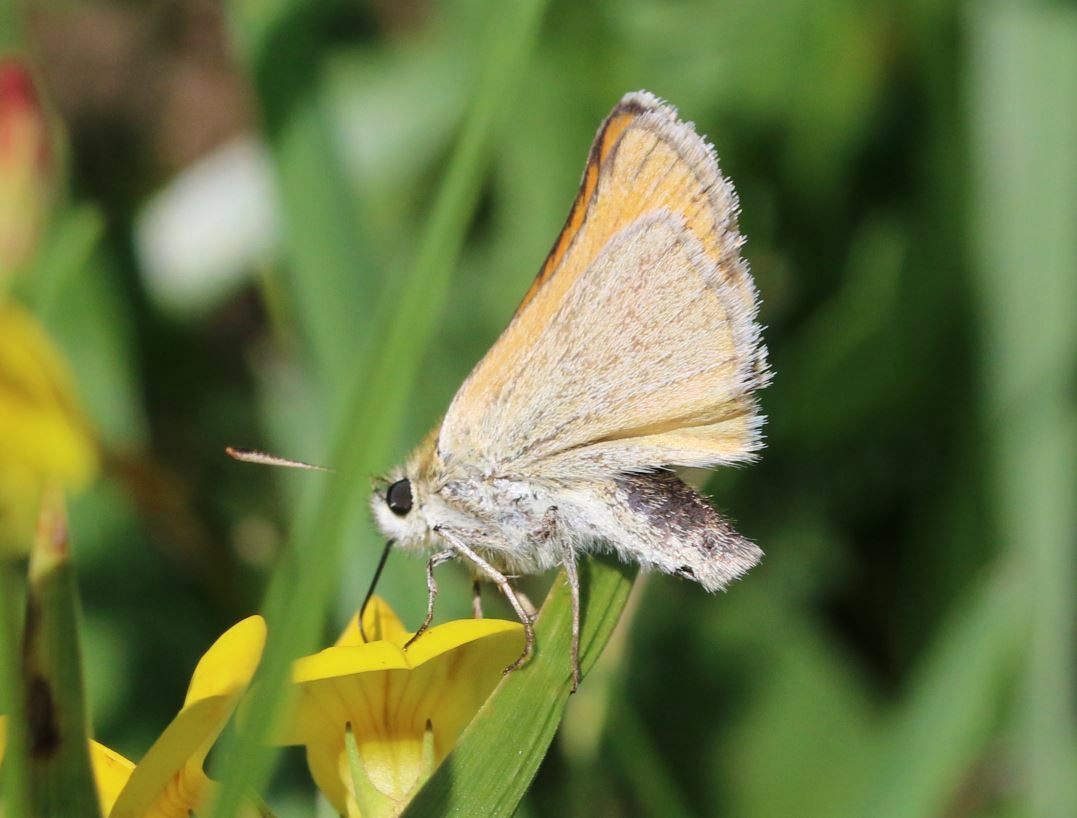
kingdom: Animalia
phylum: Arthropoda
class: Insecta
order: Lepidoptera
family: Hesperiidae
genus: Thymelicus
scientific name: Thymelicus sylvestris
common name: Small skipper
